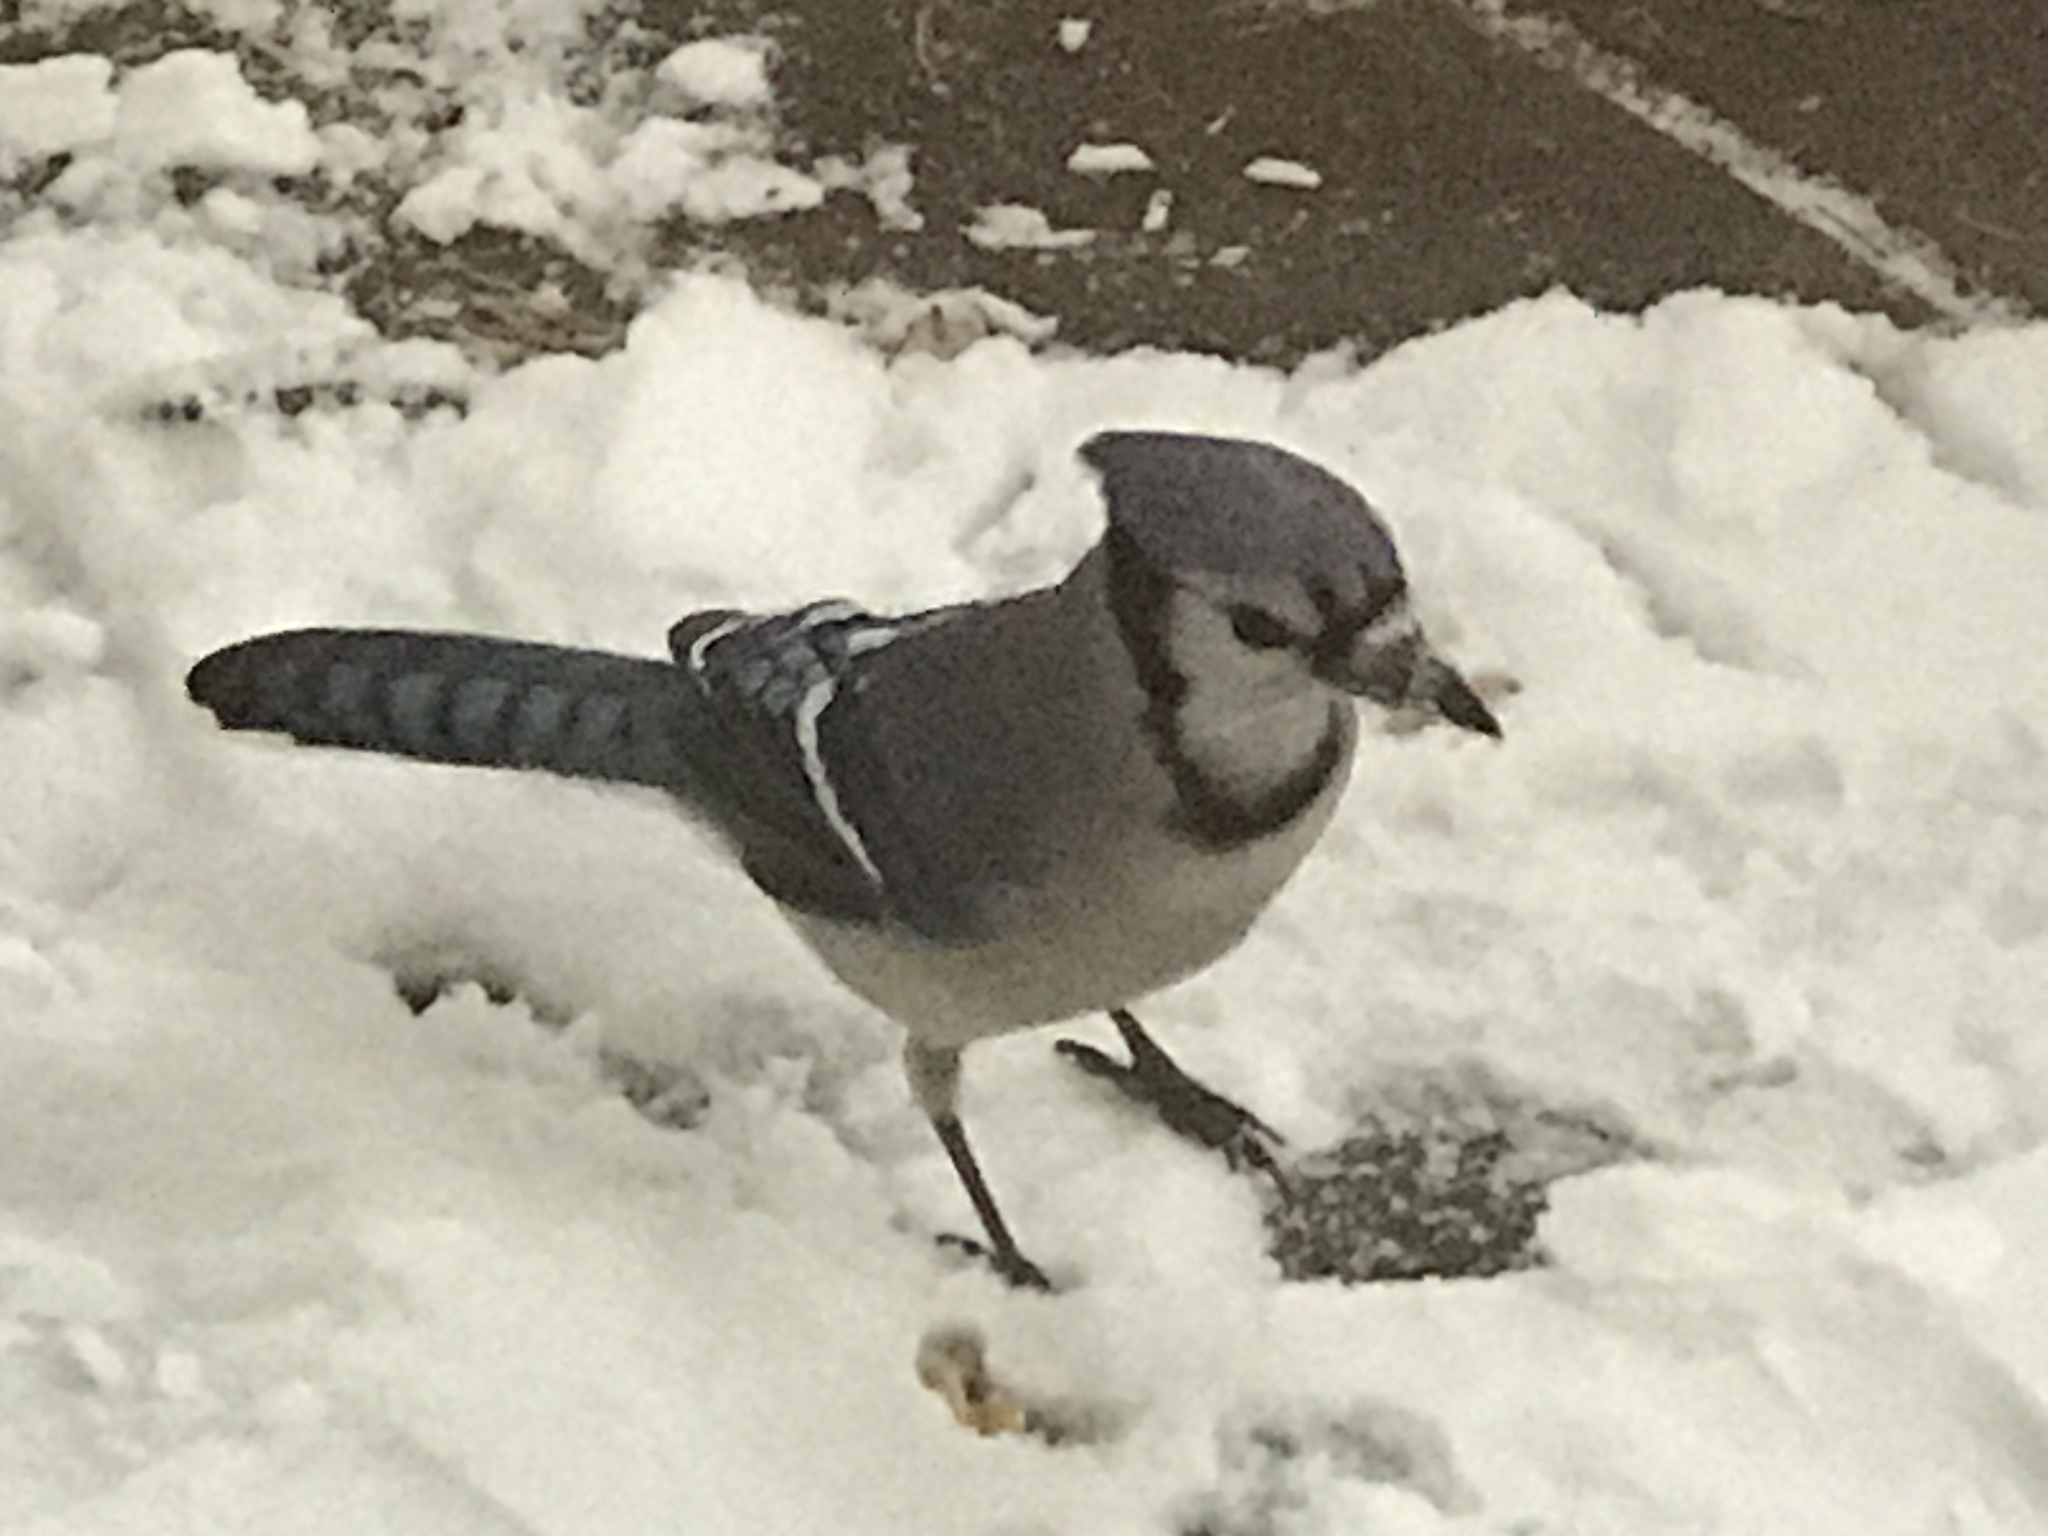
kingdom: Animalia
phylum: Chordata
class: Aves
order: Passeriformes
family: Corvidae
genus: Cyanocitta
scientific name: Cyanocitta cristata
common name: Blue jay
